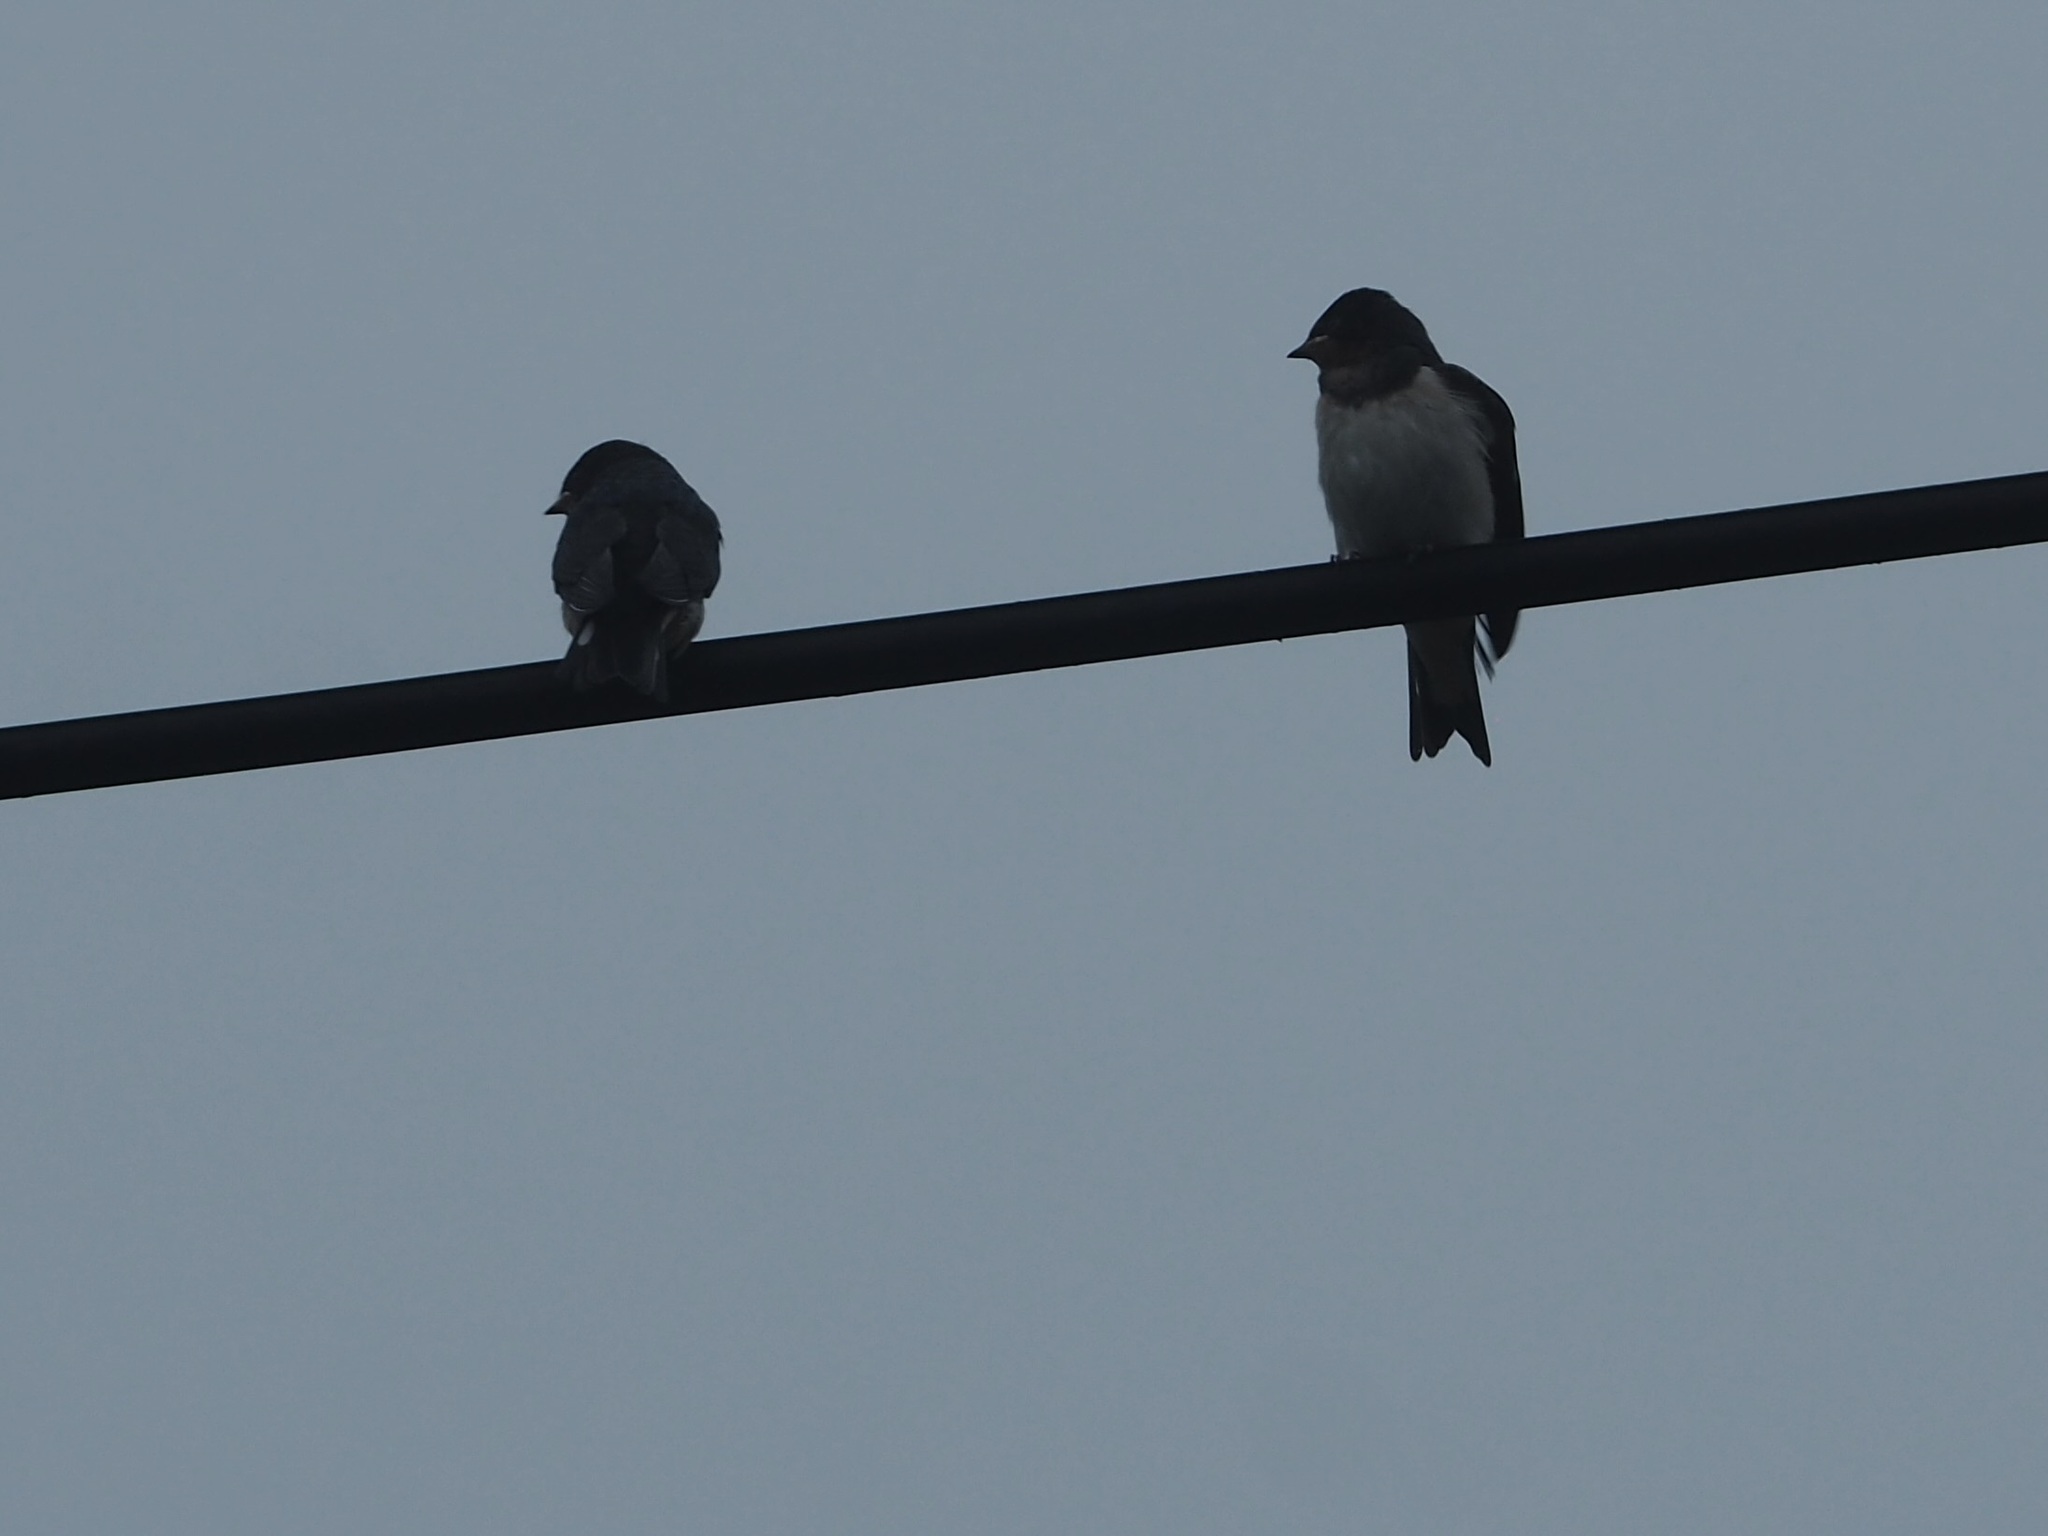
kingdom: Animalia
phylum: Chordata
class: Aves
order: Passeriformes
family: Hirundinidae
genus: Hirundo
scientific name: Hirundo rustica
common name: Barn swallow
